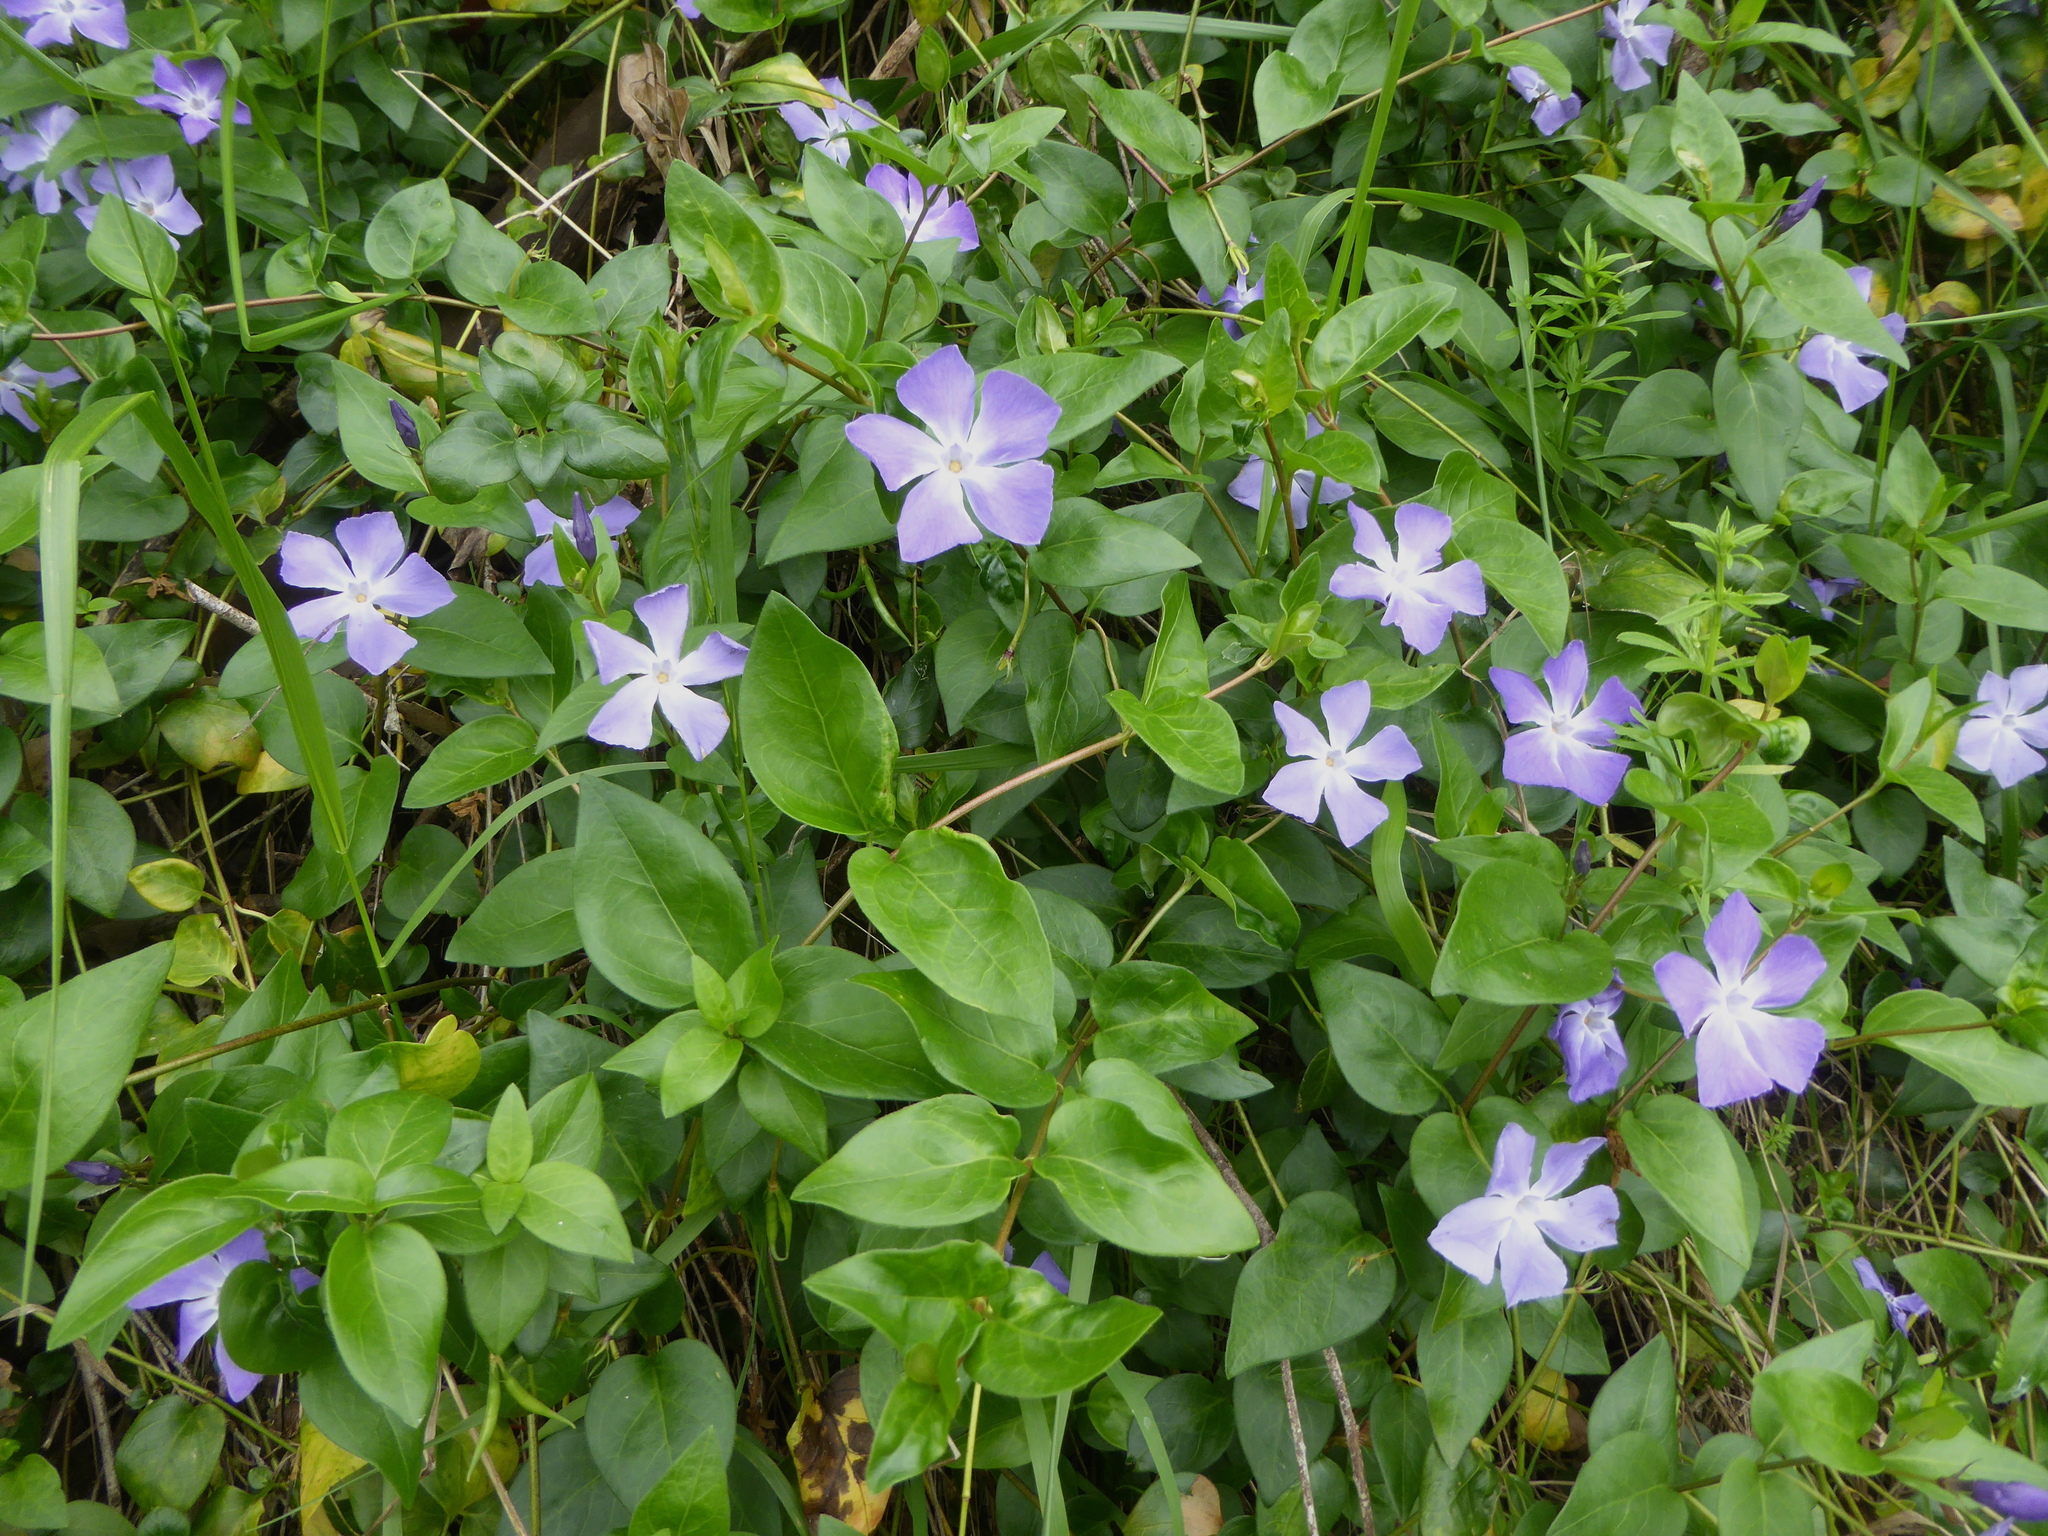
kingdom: Plantae
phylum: Tracheophyta
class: Magnoliopsida
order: Gentianales
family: Apocynaceae
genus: Vinca
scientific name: Vinca major
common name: Greater periwinkle
